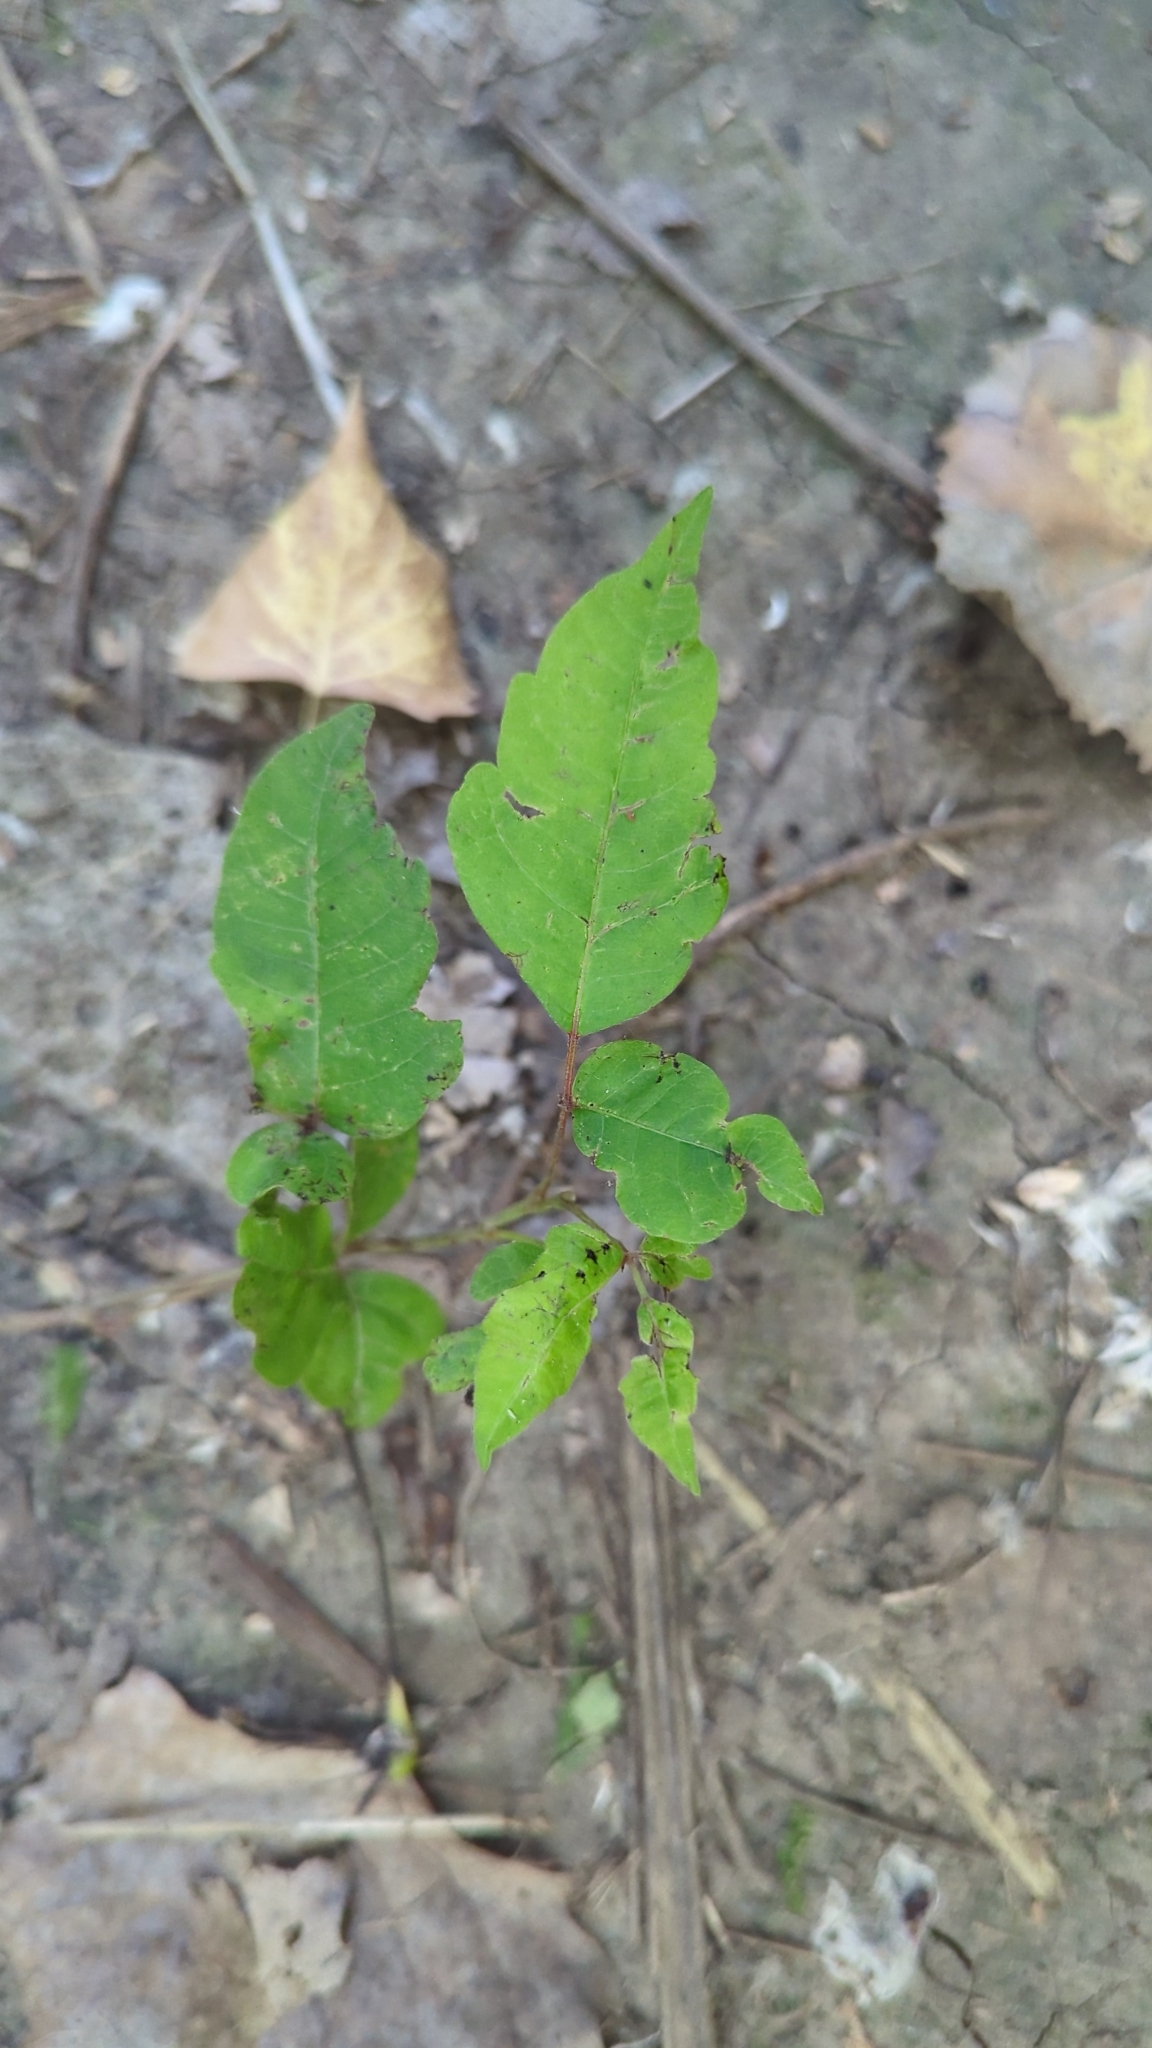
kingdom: Plantae
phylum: Tracheophyta
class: Magnoliopsida
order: Sapindales
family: Anacardiaceae
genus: Toxicodendron
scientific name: Toxicodendron radicans
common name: Poison ivy
